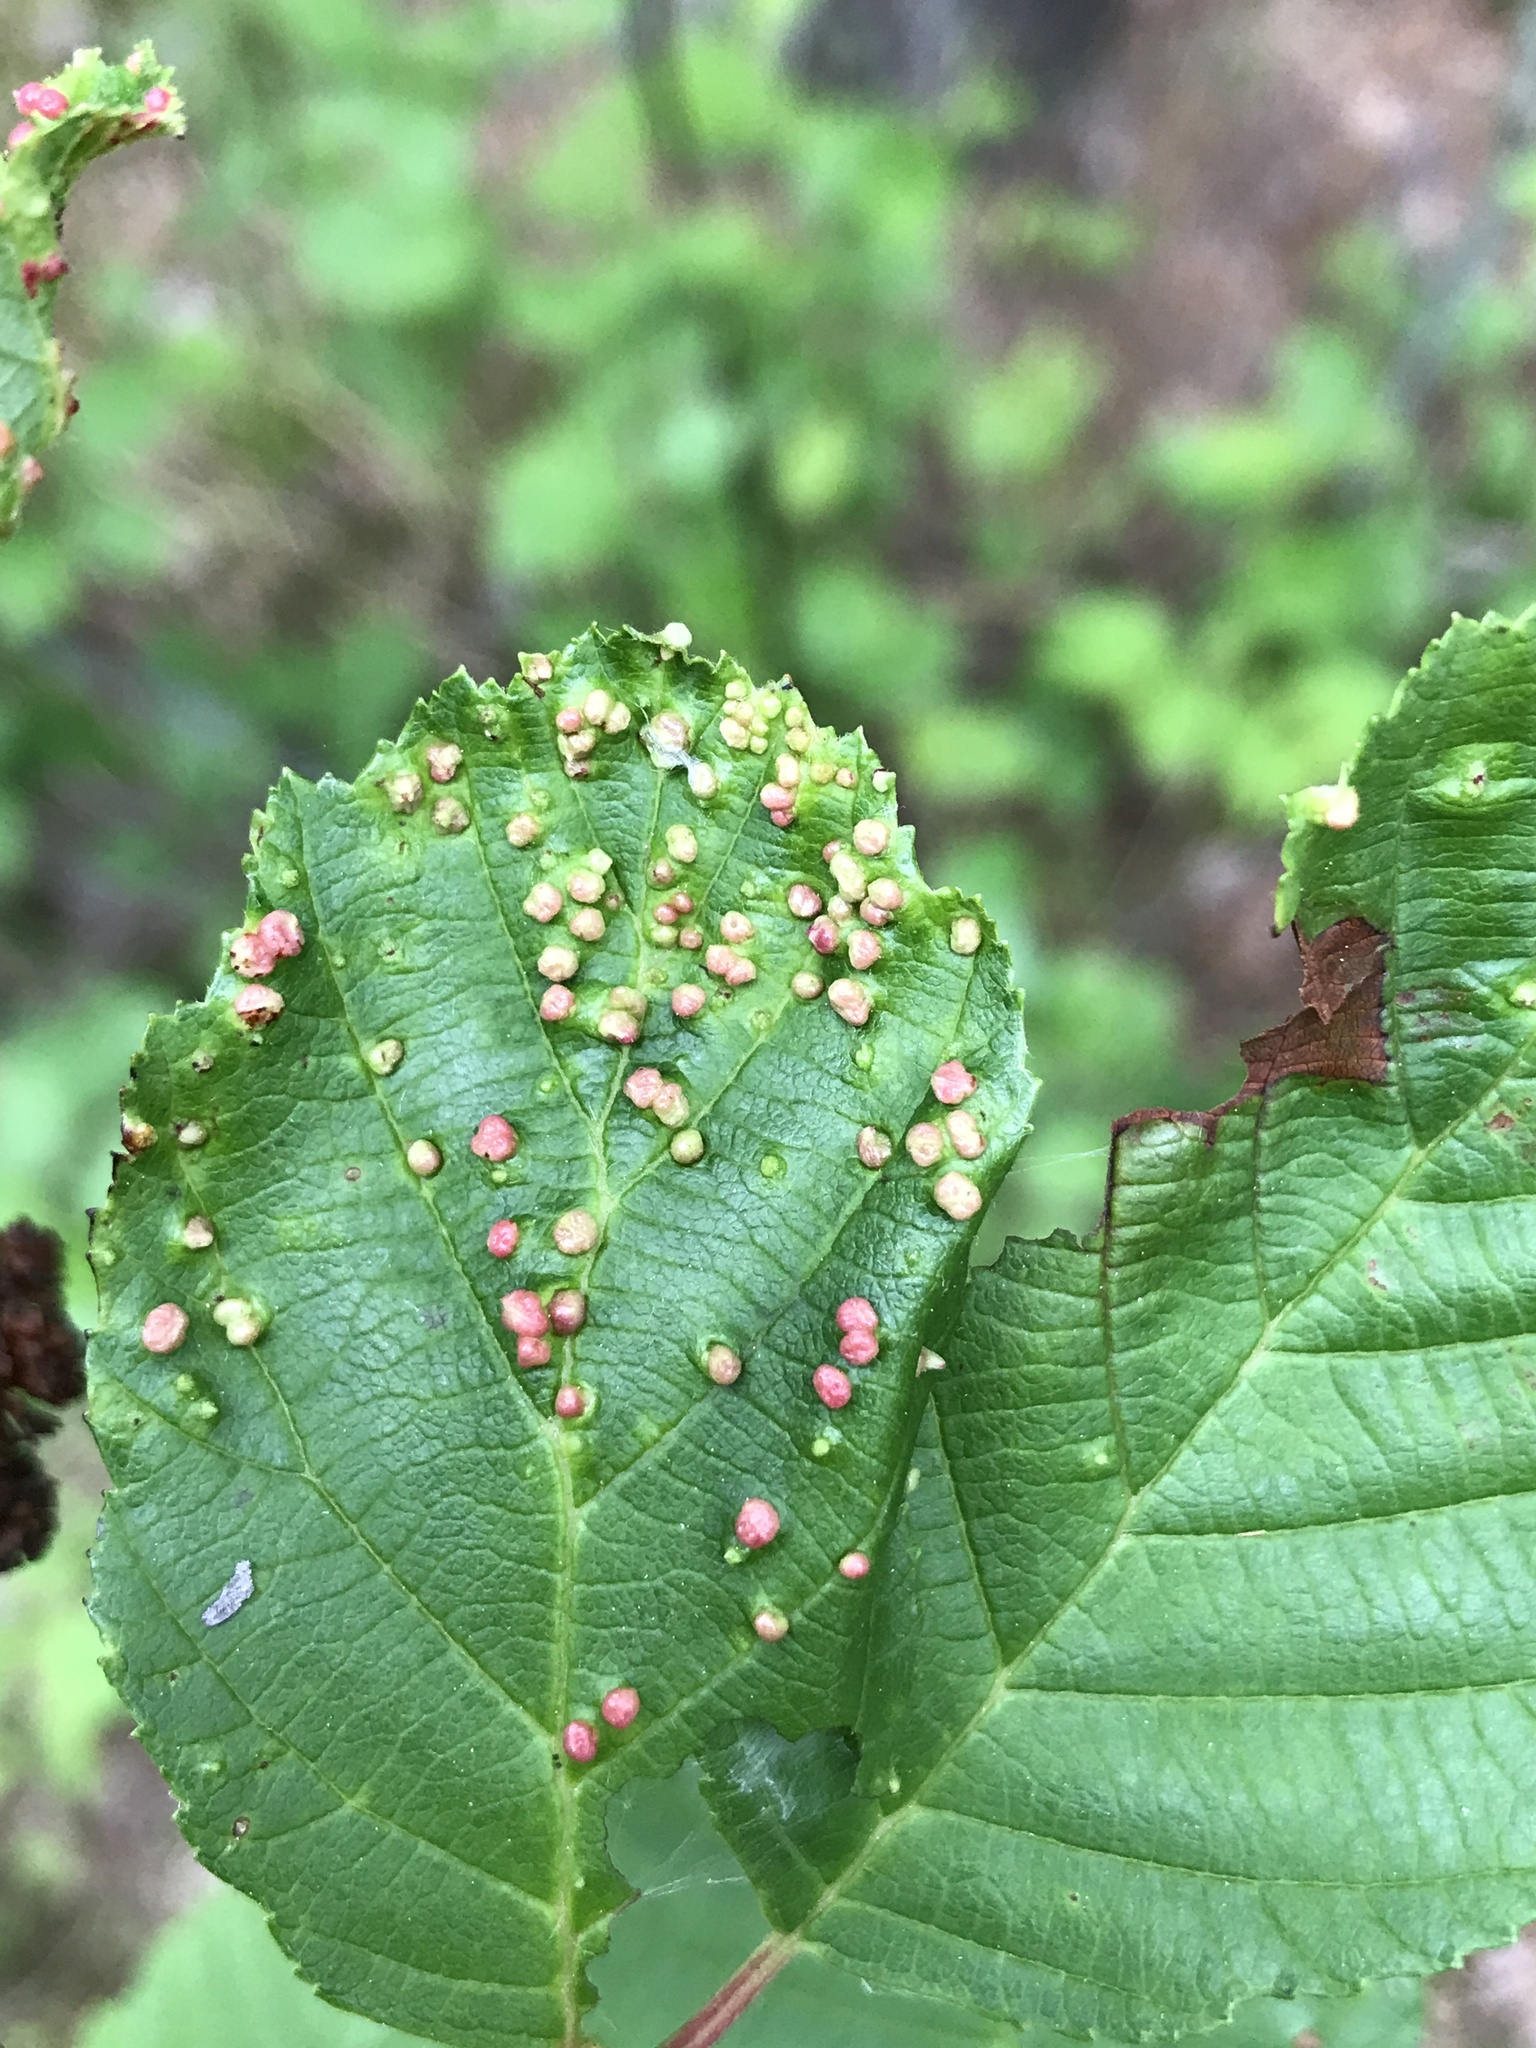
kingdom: Animalia
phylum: Arthropoda
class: Arachnida
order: Trombidiformes
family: Eriophyidae
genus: Eriophyes
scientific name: Eriophyes laevis
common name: Alder leaf gall mite
